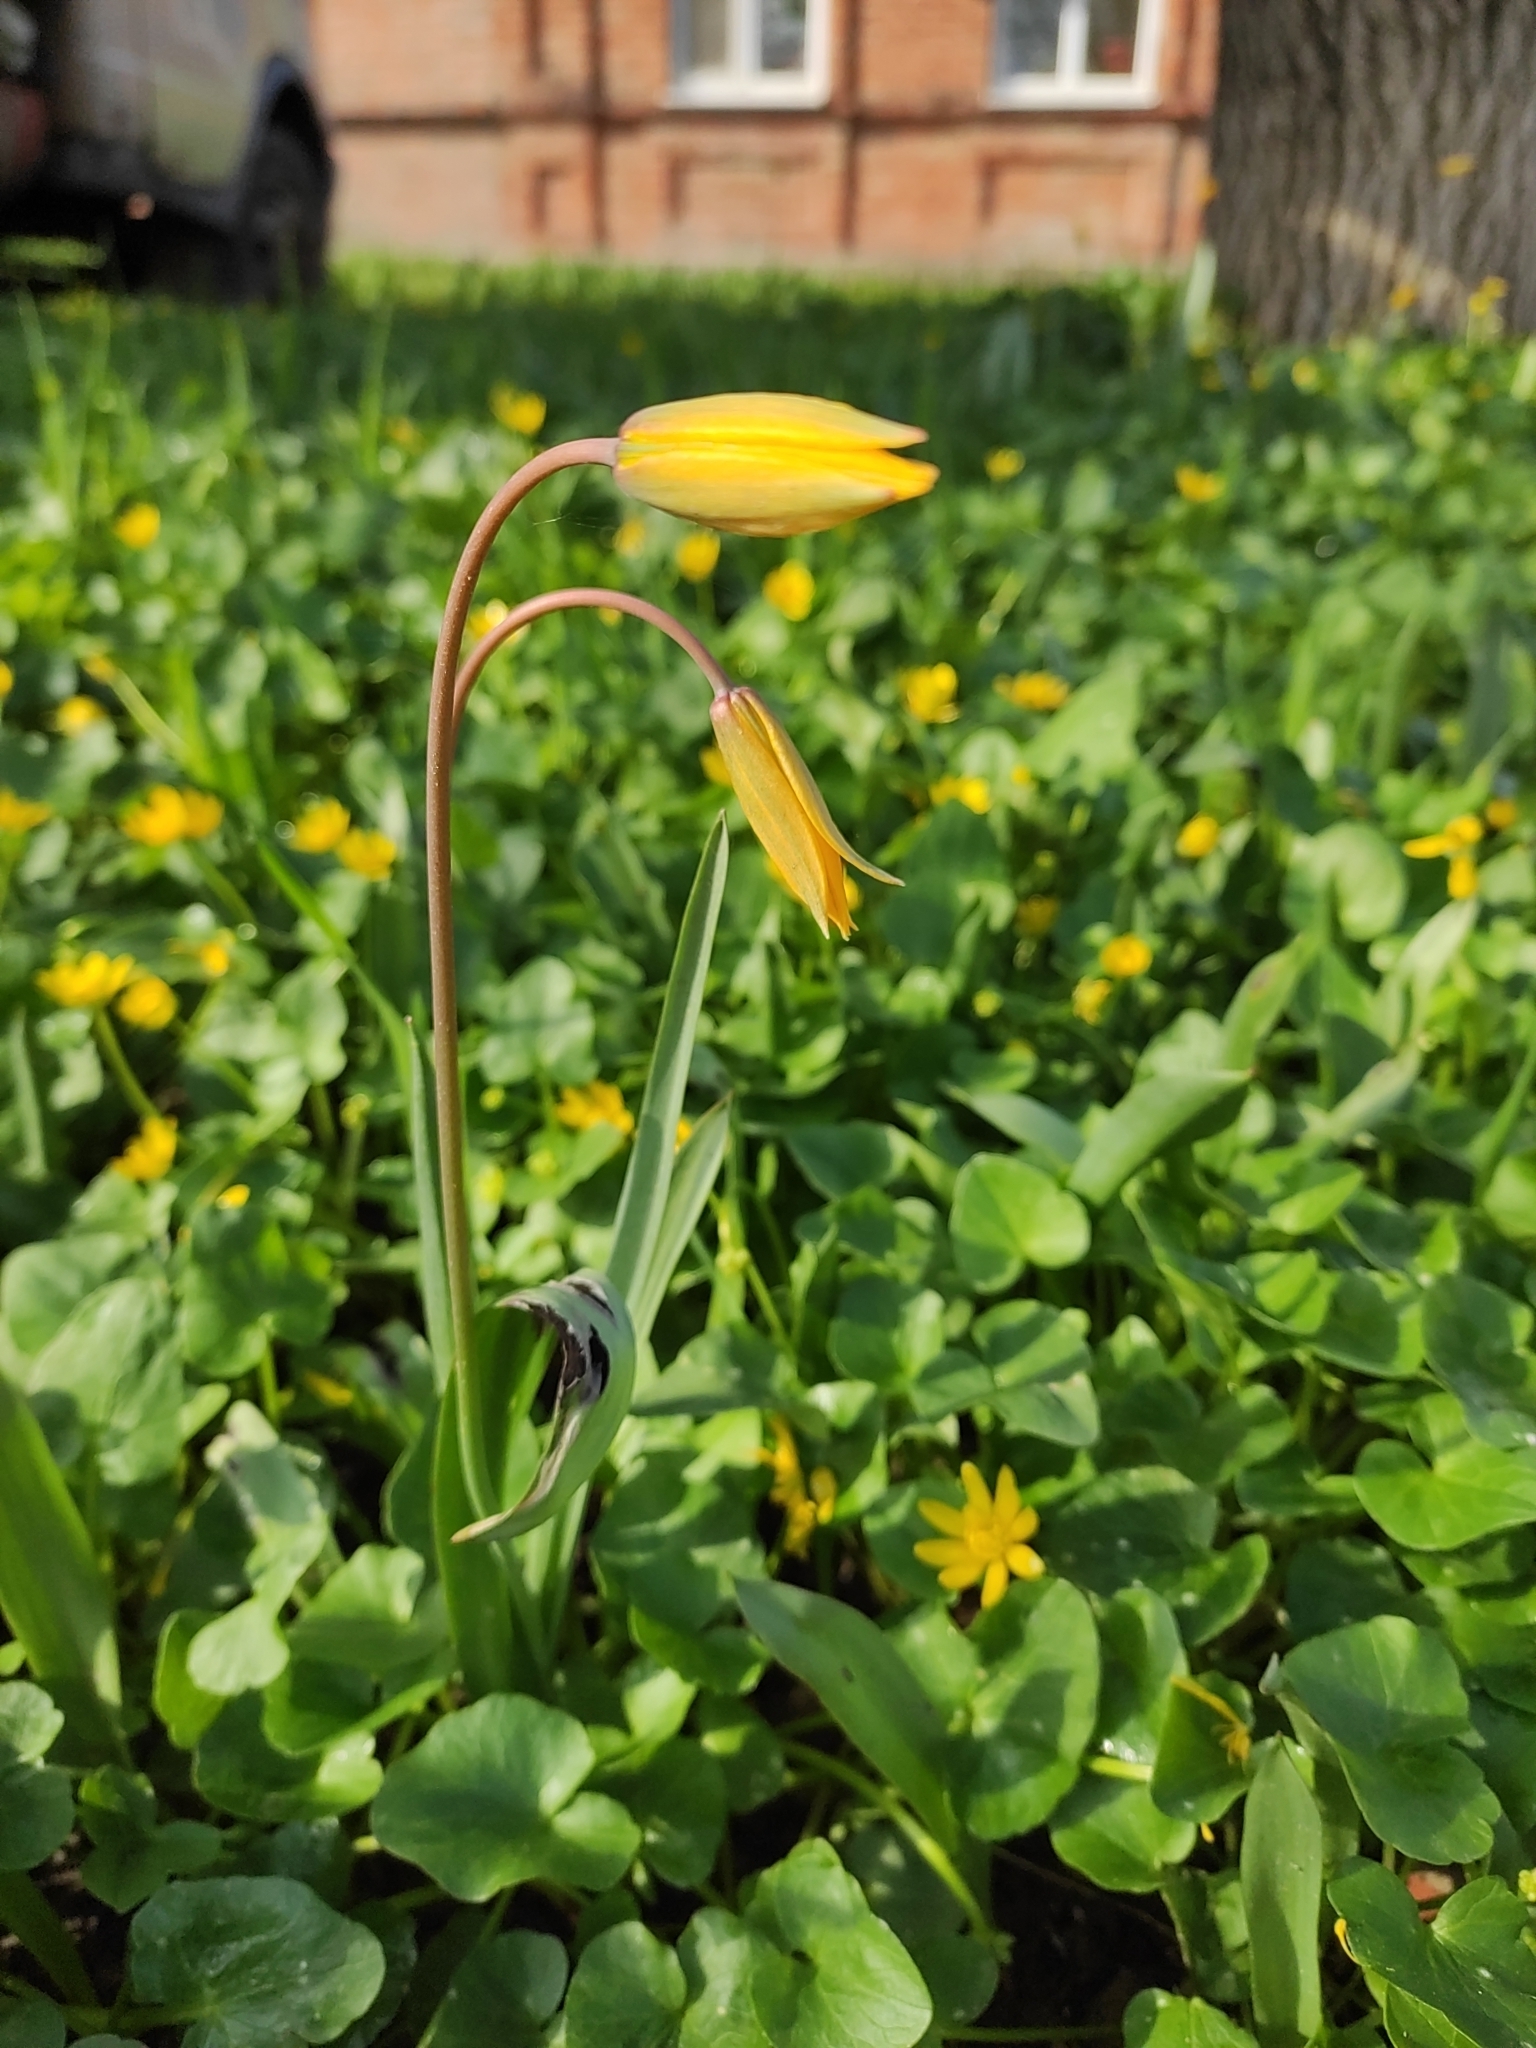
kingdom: Plantae
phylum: Tracheophyta
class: Liliopsida
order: Liliales
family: Liliaceae
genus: Tulipa
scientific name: Tulipa sylvestris
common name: Wild tulip
